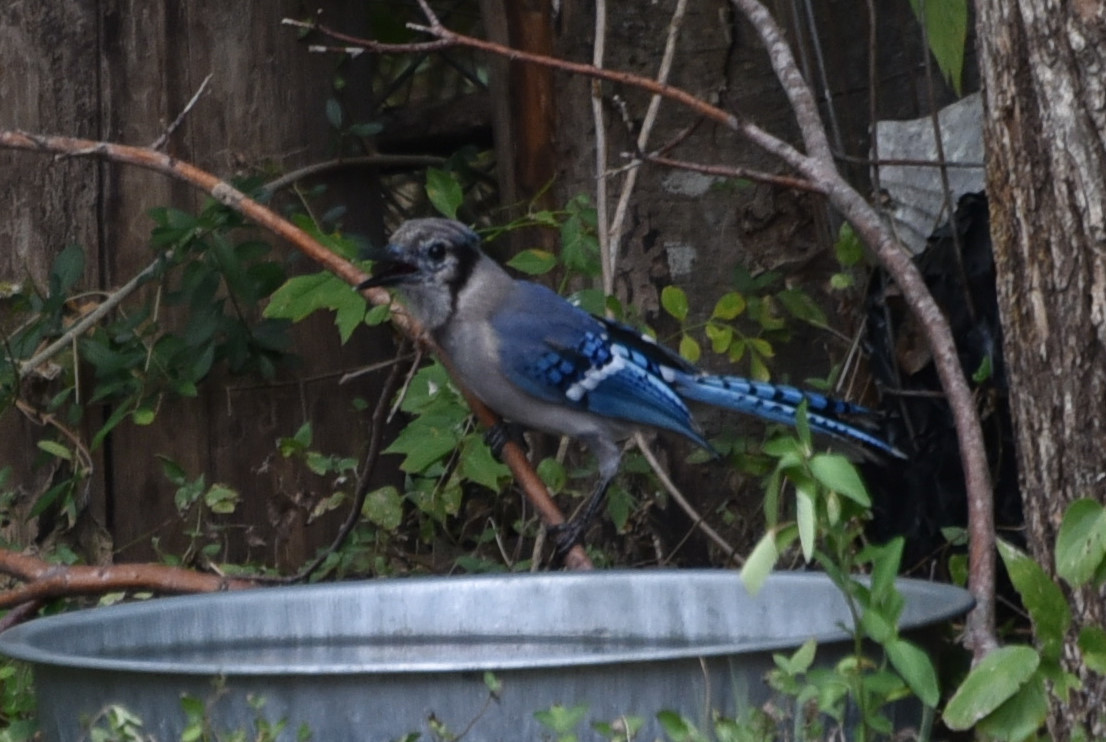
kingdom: Animalia
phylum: Chordata
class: Aves
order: Passeriformes
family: Corvidae
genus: Cyanocitta
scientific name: Cyanocitta cristata
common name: Blue jay
